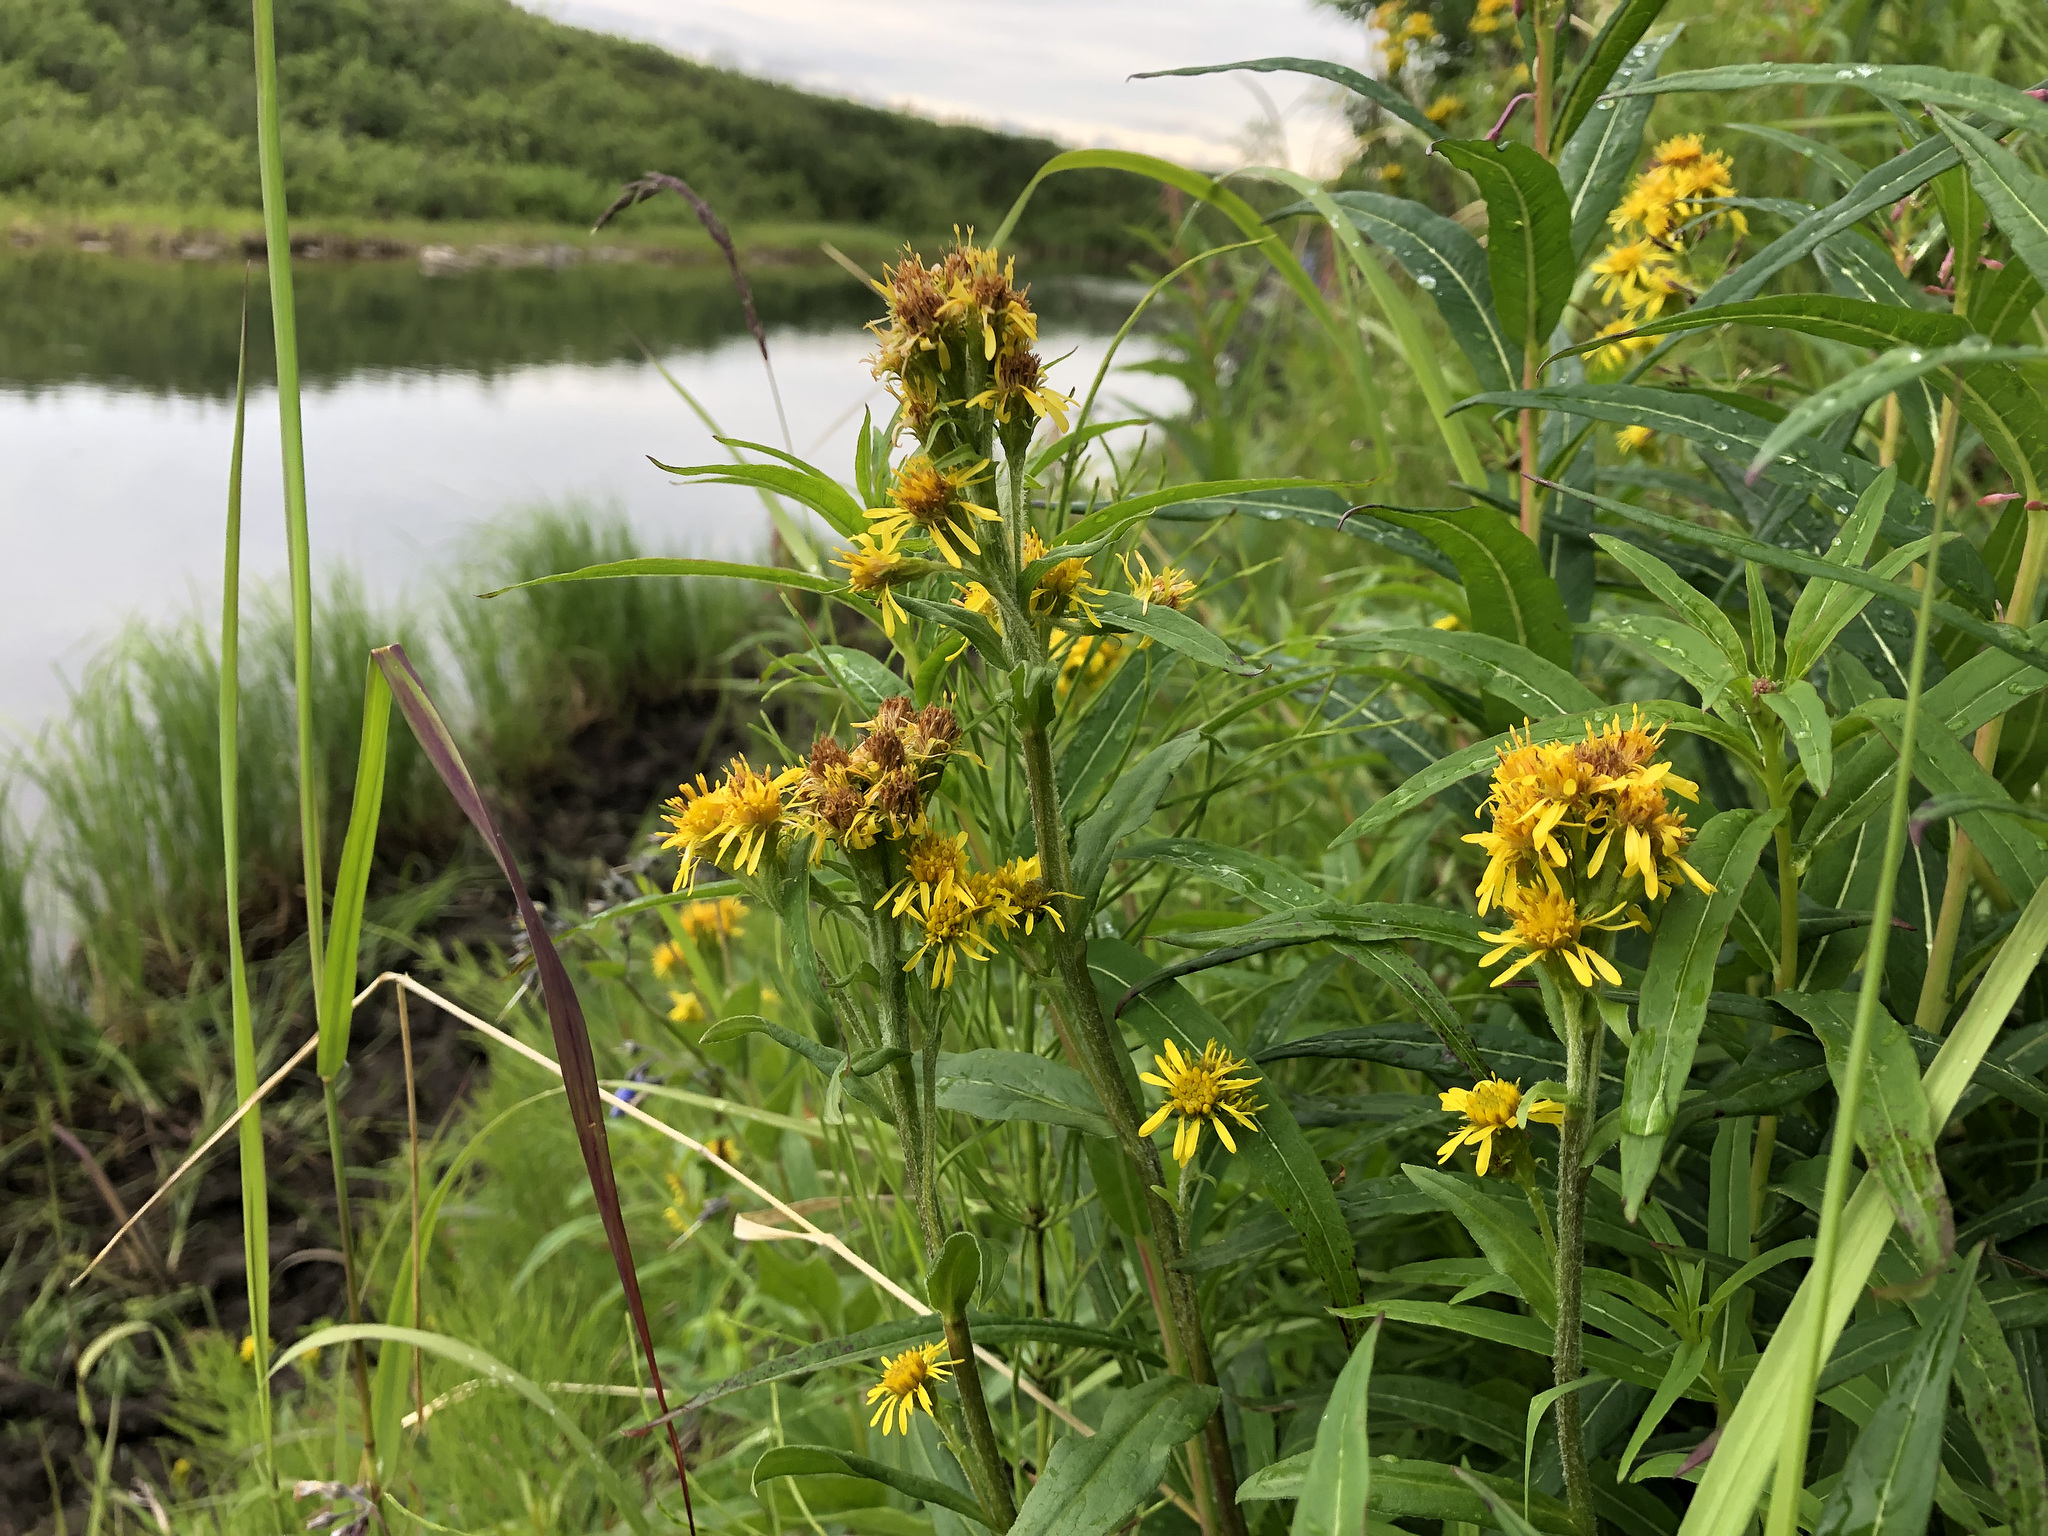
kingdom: Plantae
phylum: Tracheophyta
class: Magnoliopsida
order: Asterales
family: Asteraceae
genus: Solidago
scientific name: Solidago multiradiata
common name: Northern goldenrod
